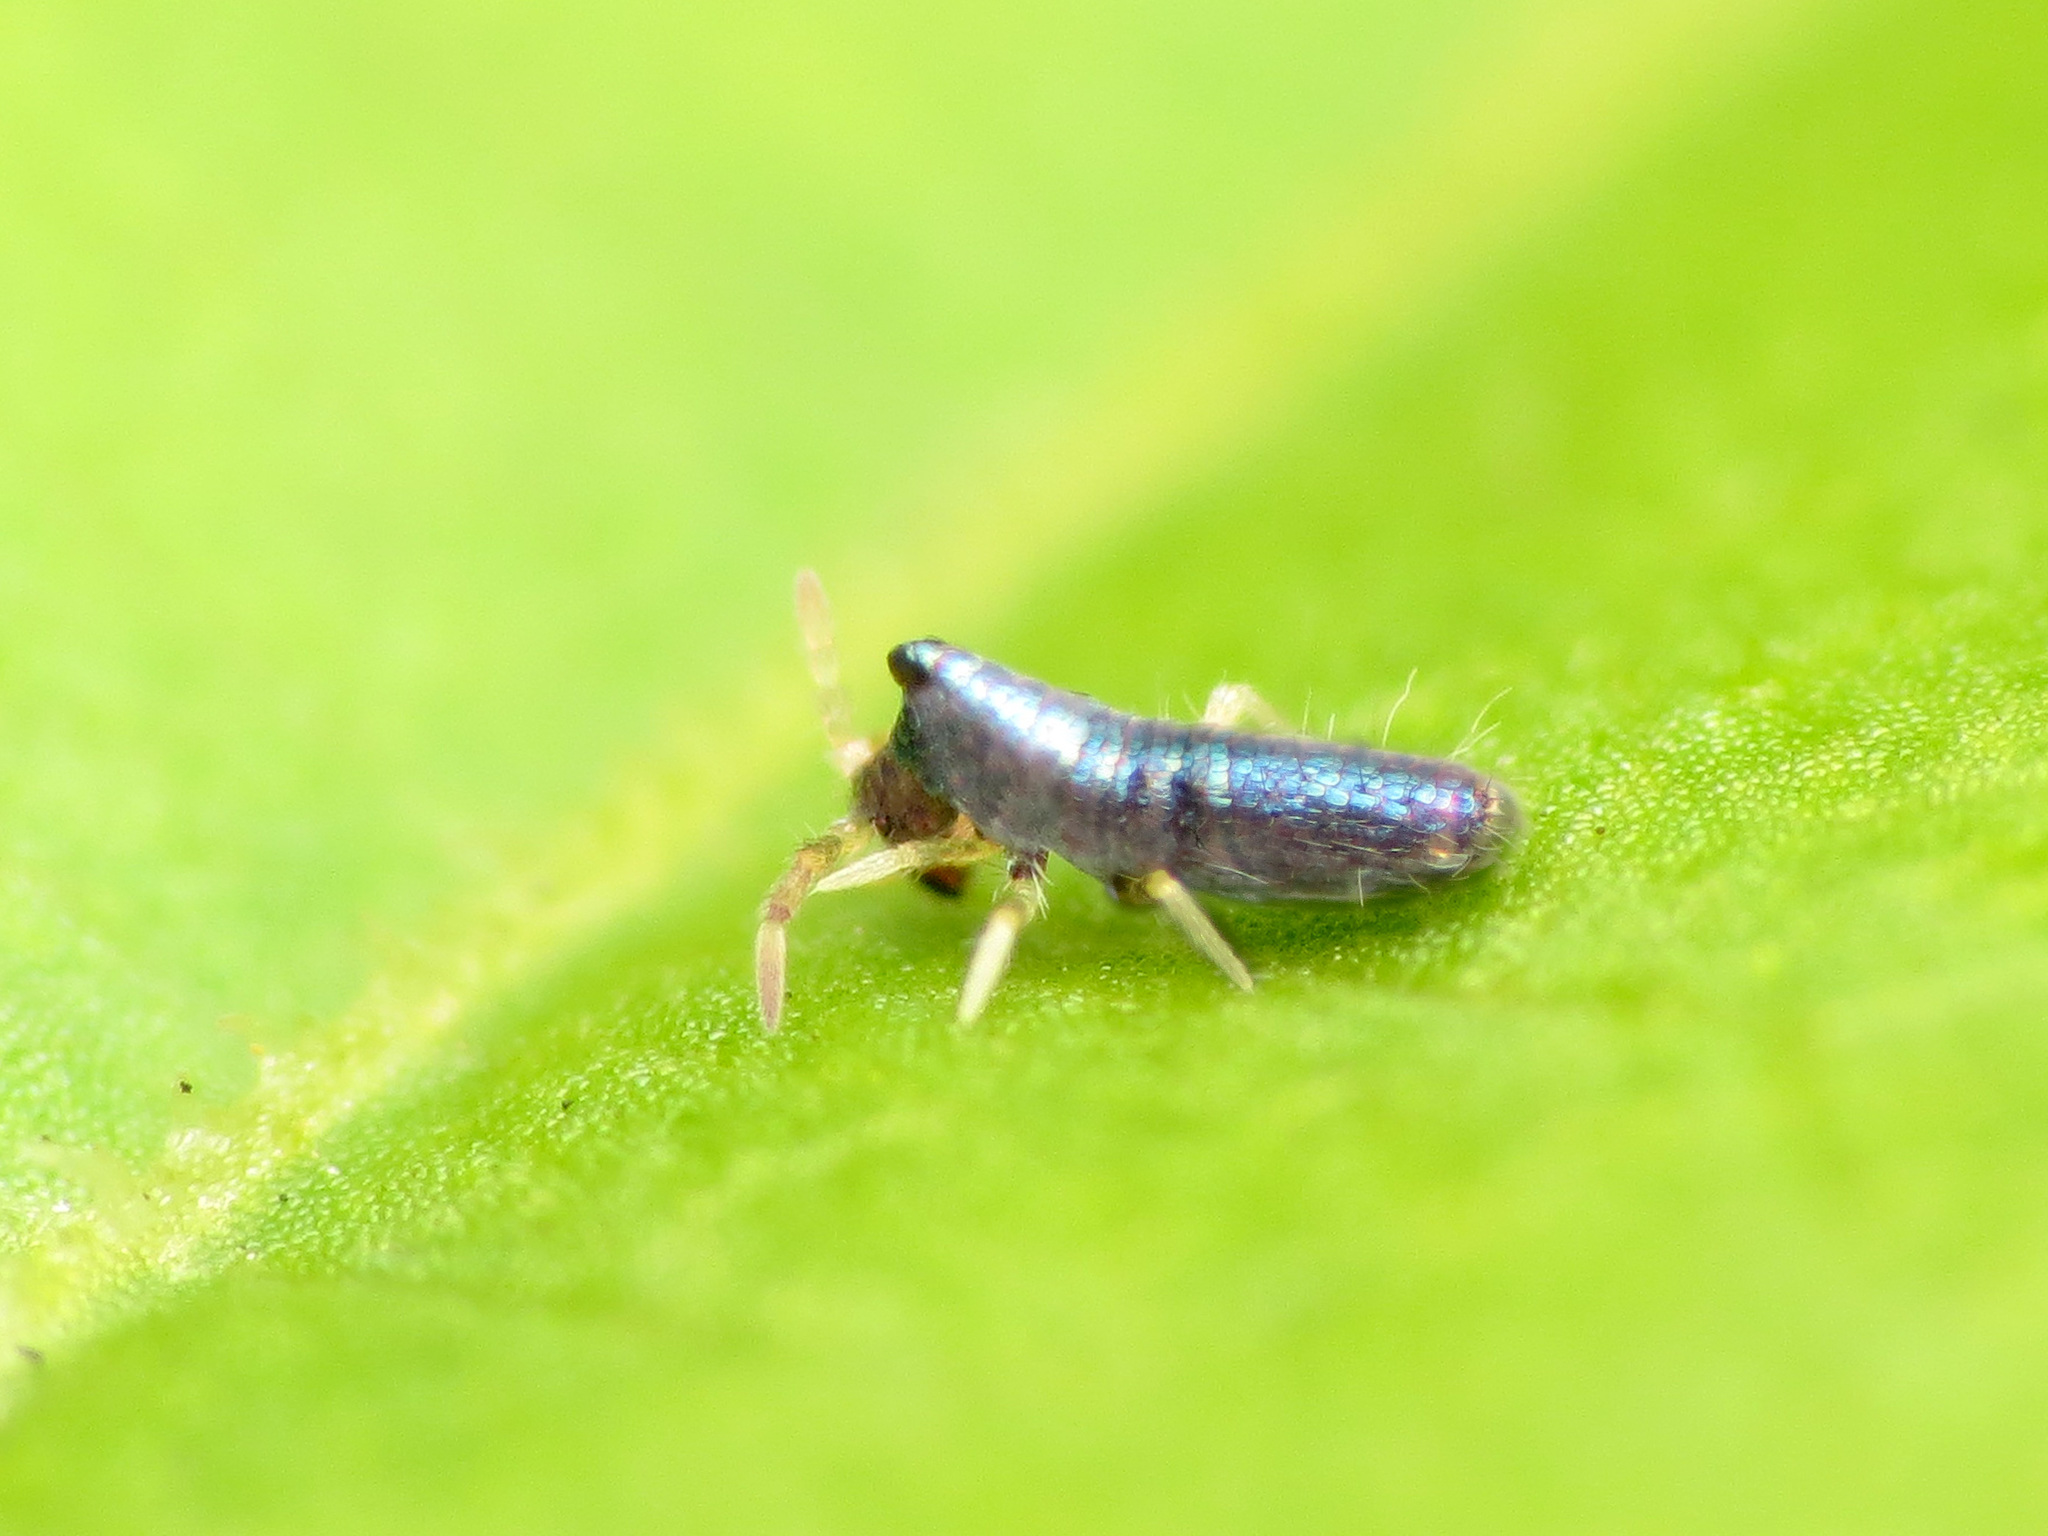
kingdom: Animalia
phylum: Arthropoda
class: Collembola
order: Entomobryomorpha
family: Entomobryidae
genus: Lepidocyrtus
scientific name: Lepidocyrtus paradoxus
